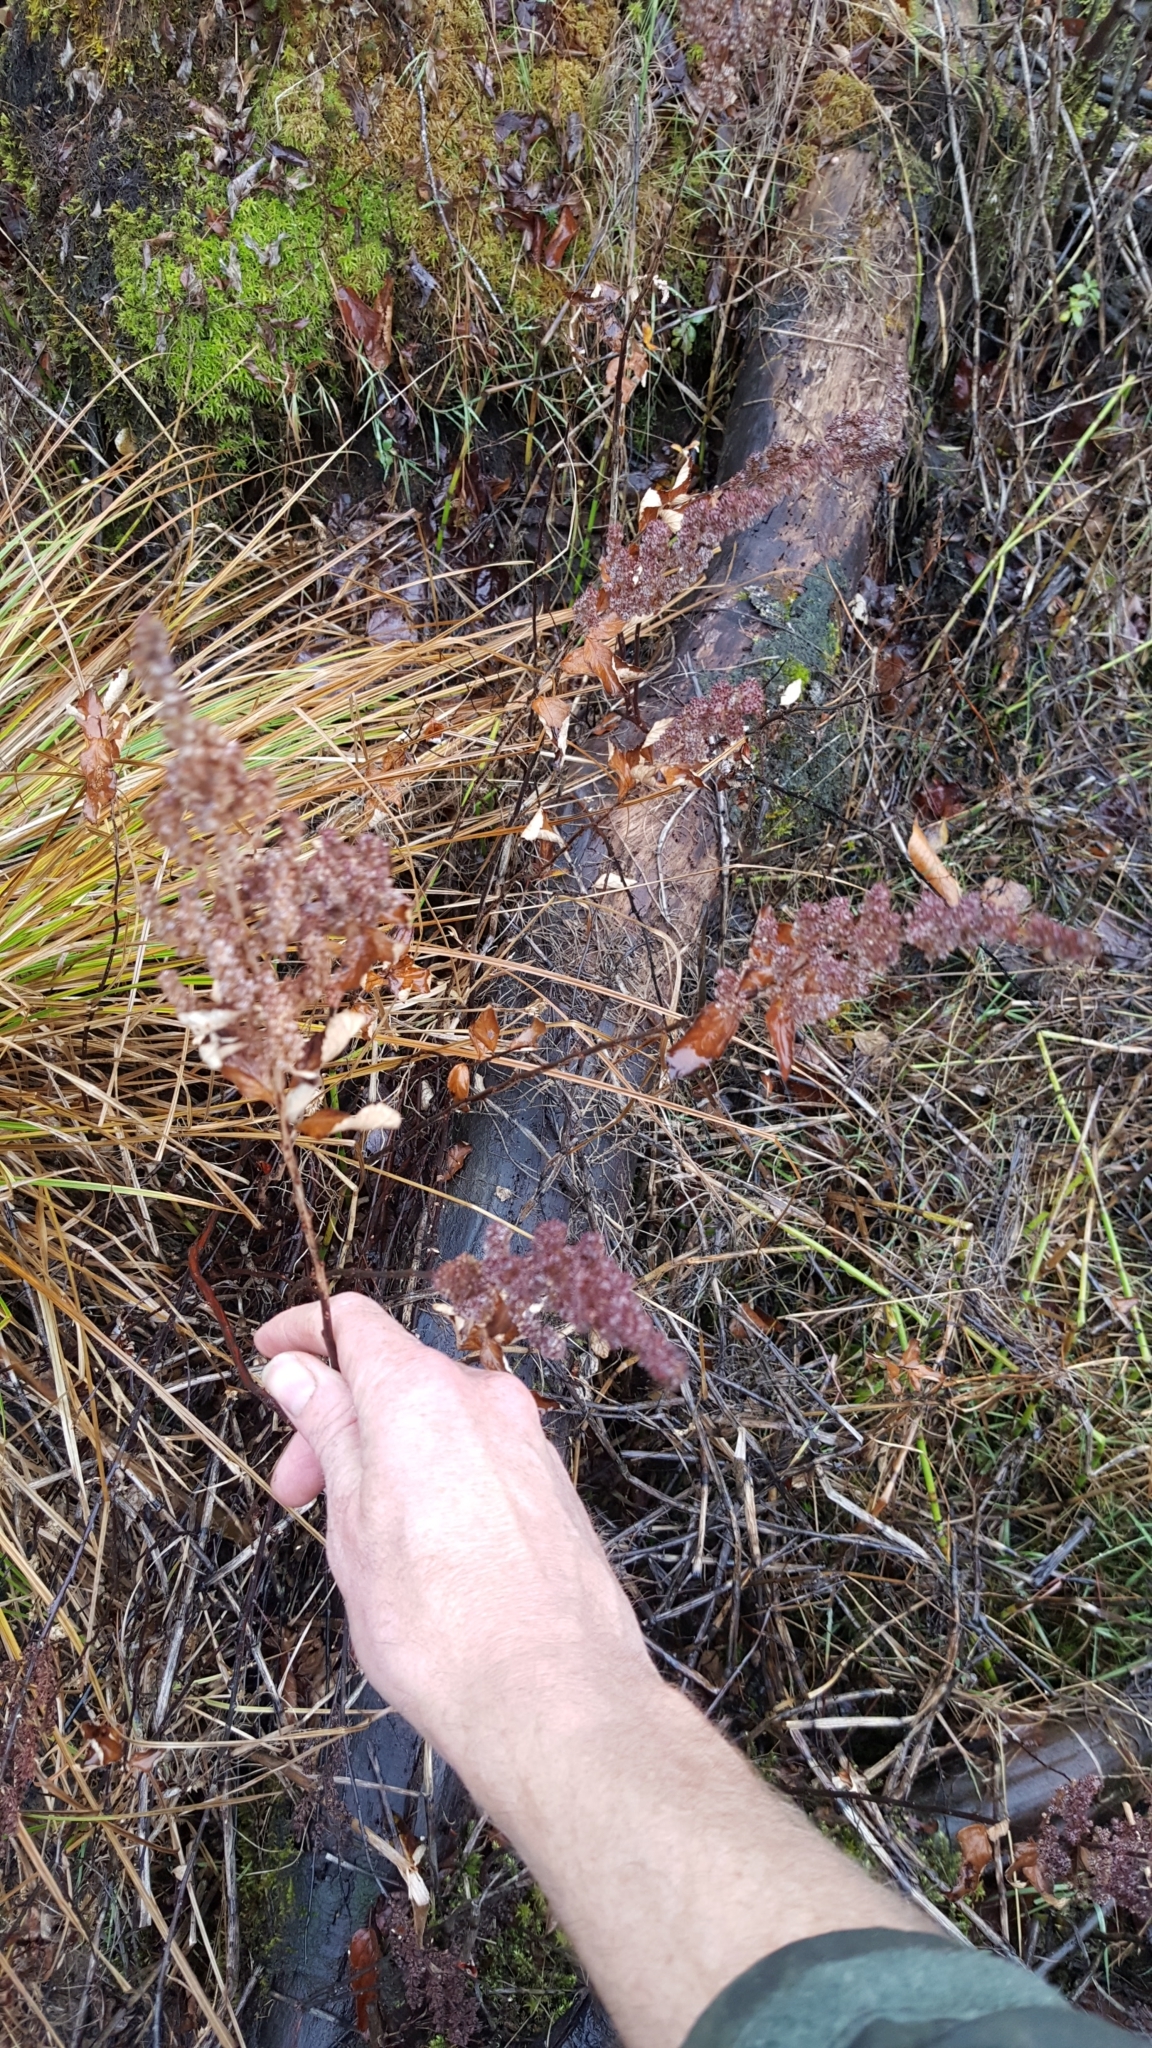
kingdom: Plantae
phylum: Tracheophyta
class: Magnoliopsida
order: Rosales
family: Rosaceae
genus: Spiraea
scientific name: Spiraea tomentosa
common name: Hardhack
